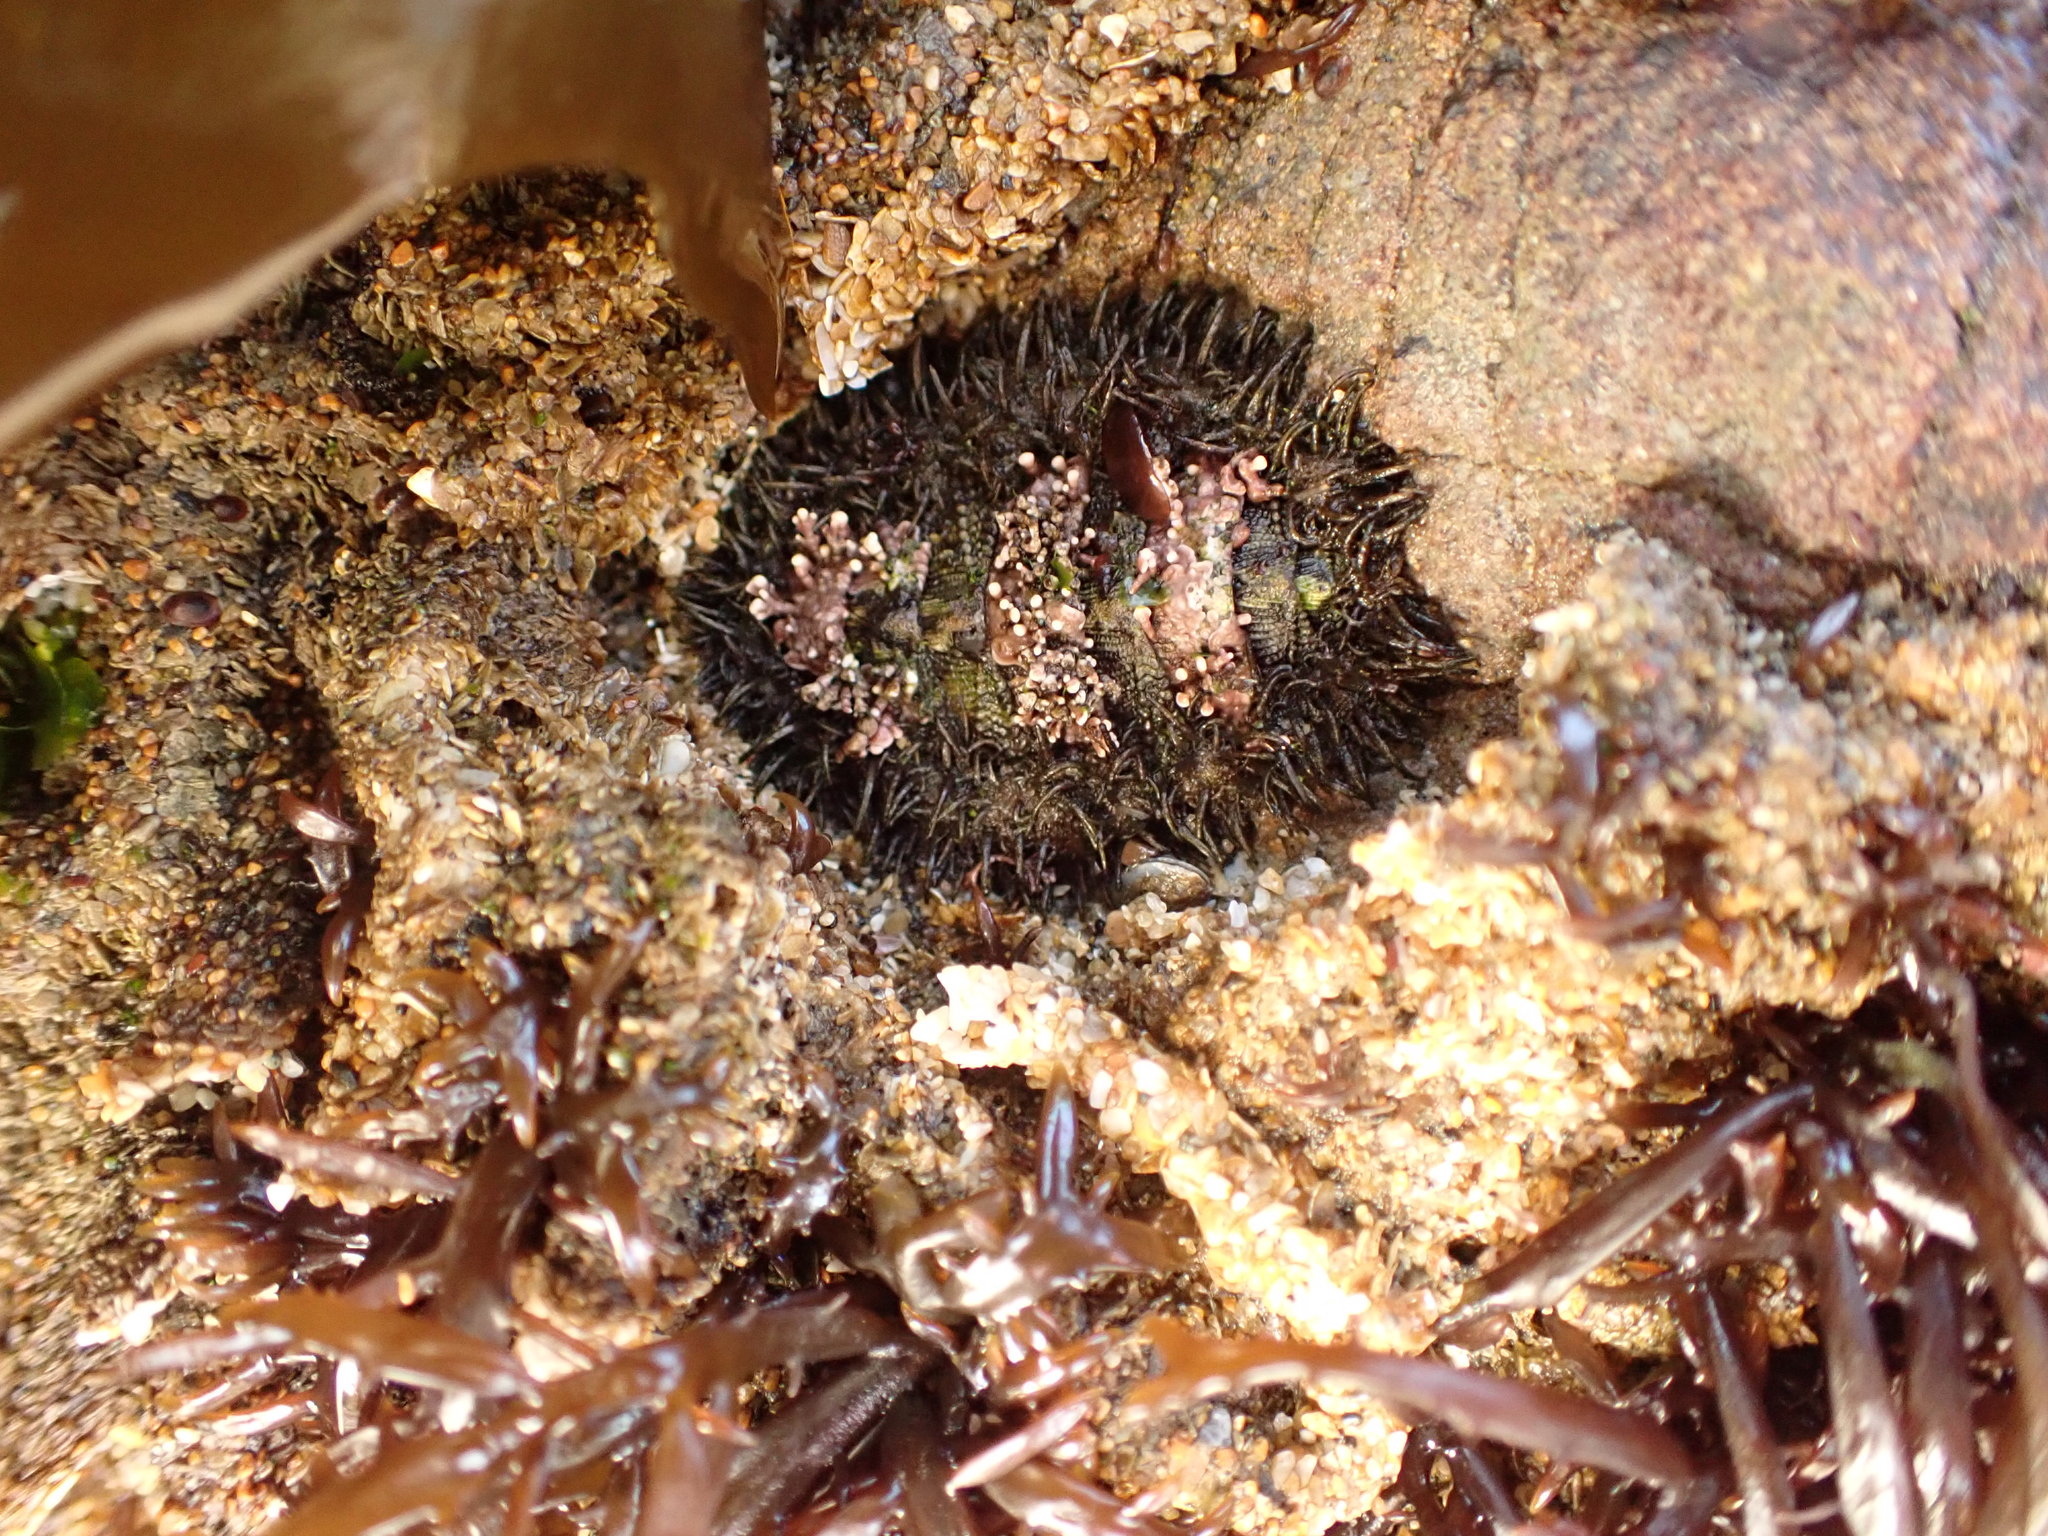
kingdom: Animalia
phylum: Mollusca
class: Polyplacophora
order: Chitonida
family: Mopaliidae
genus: Mopalia
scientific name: Mopalia muscosa
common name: Mossy chiton
